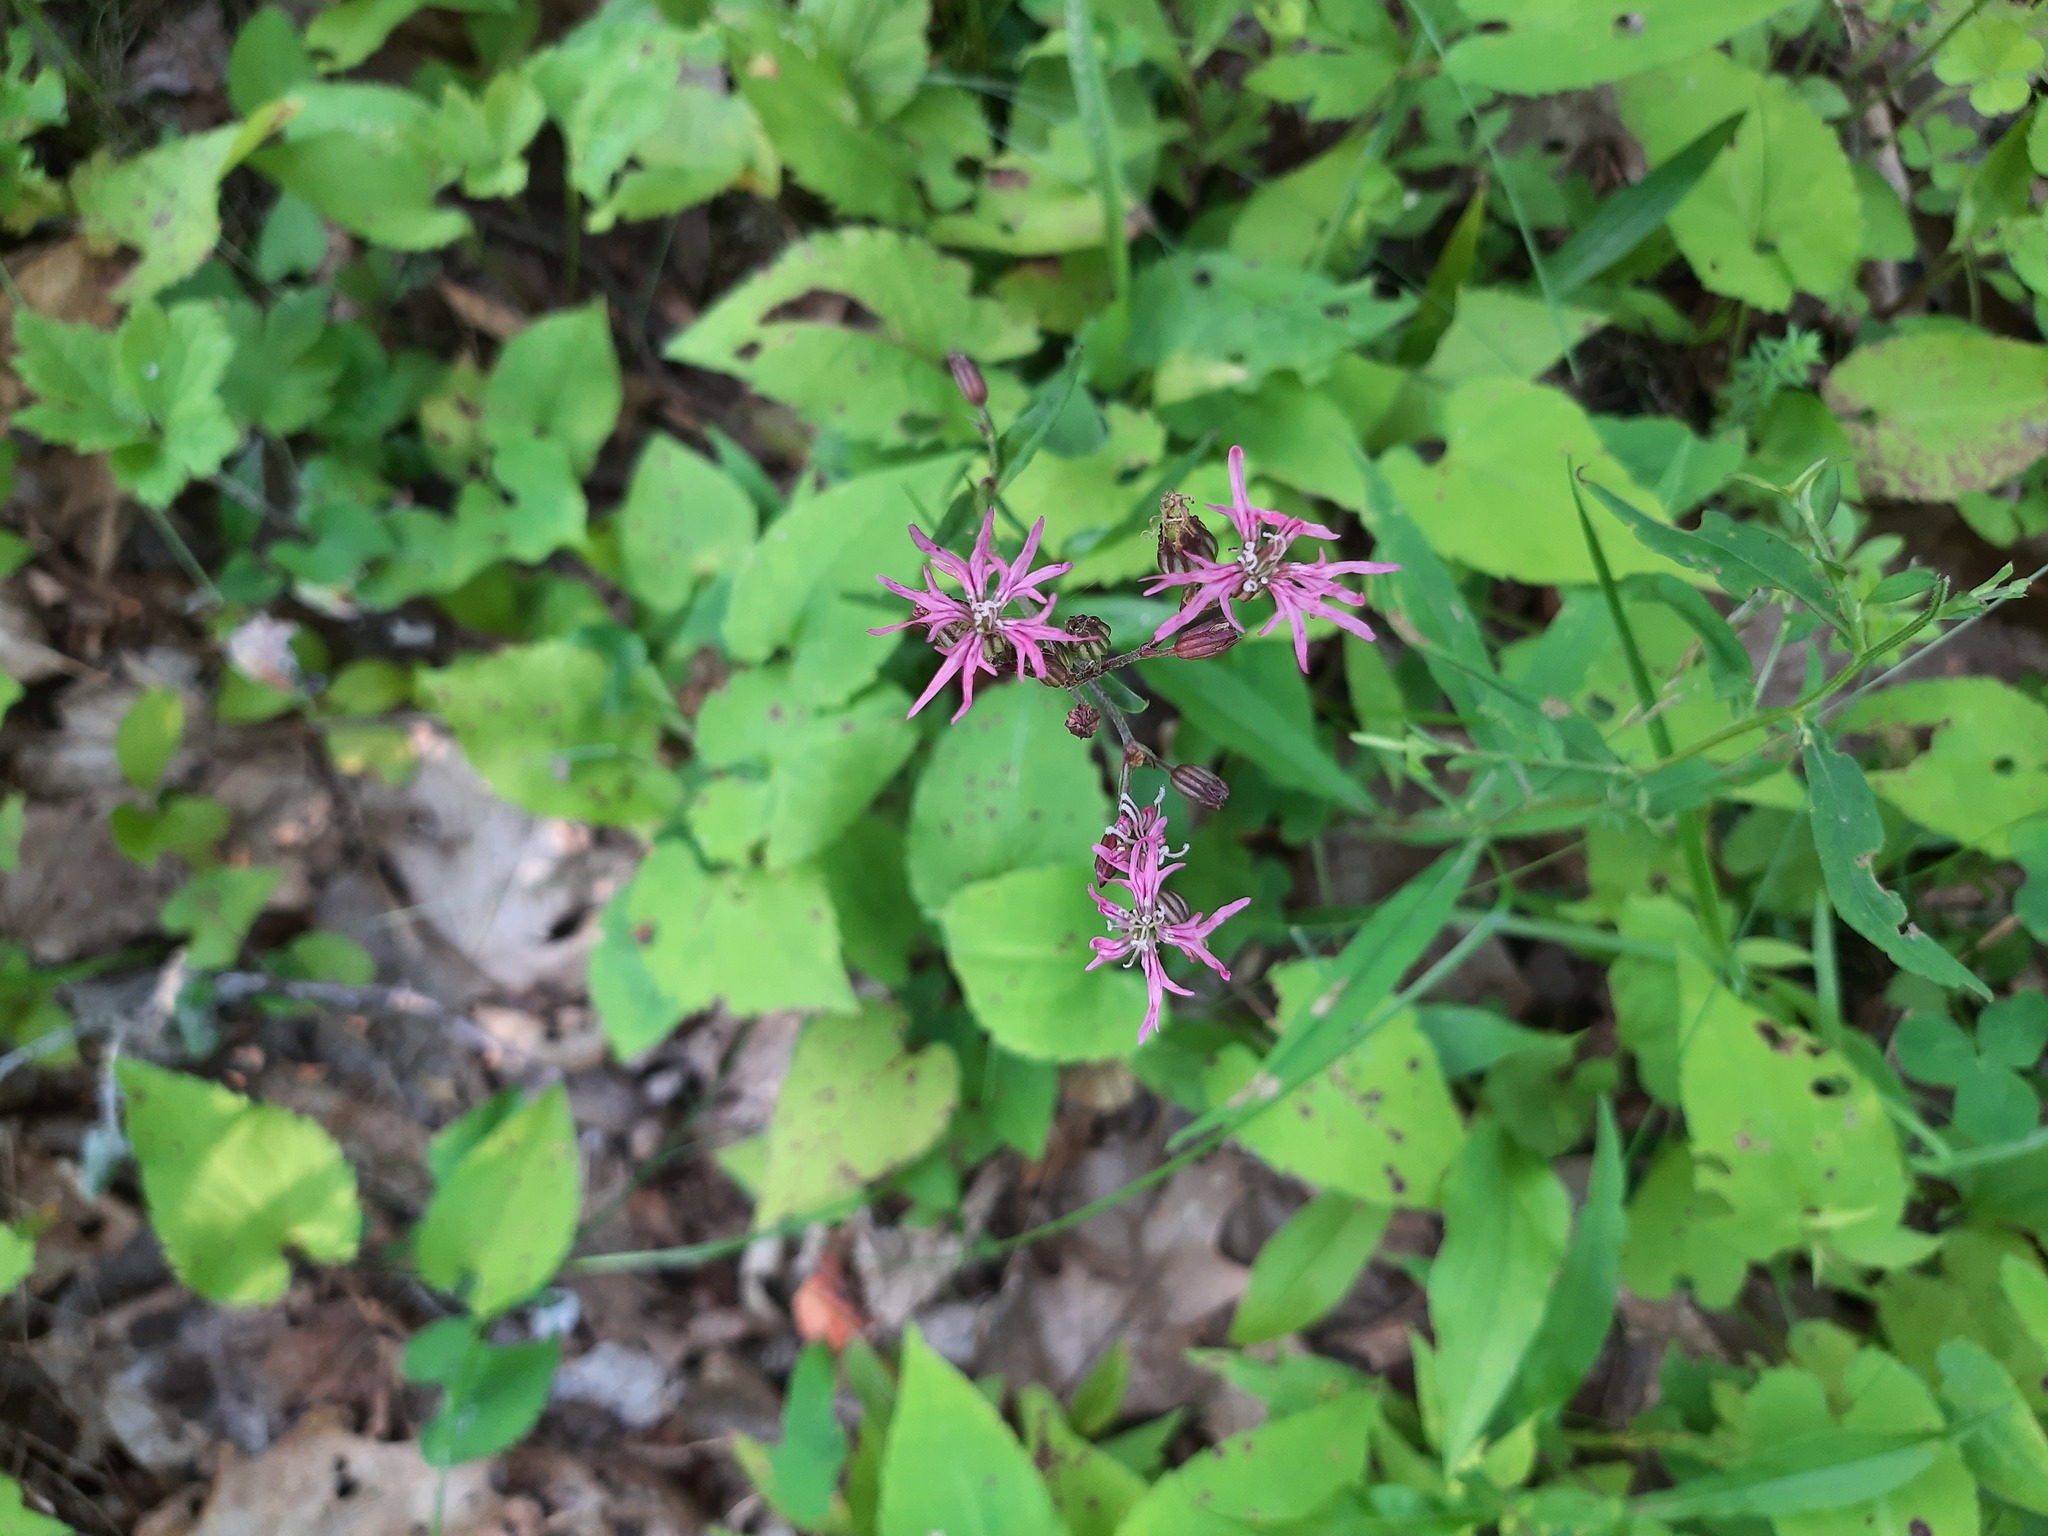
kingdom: Plantae
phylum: Tracheophyta
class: Magnoliopsida
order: Caryophyllales
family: Caryophyllaceae
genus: Silene
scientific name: Silene flos-cuculi
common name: Ragged-robin
